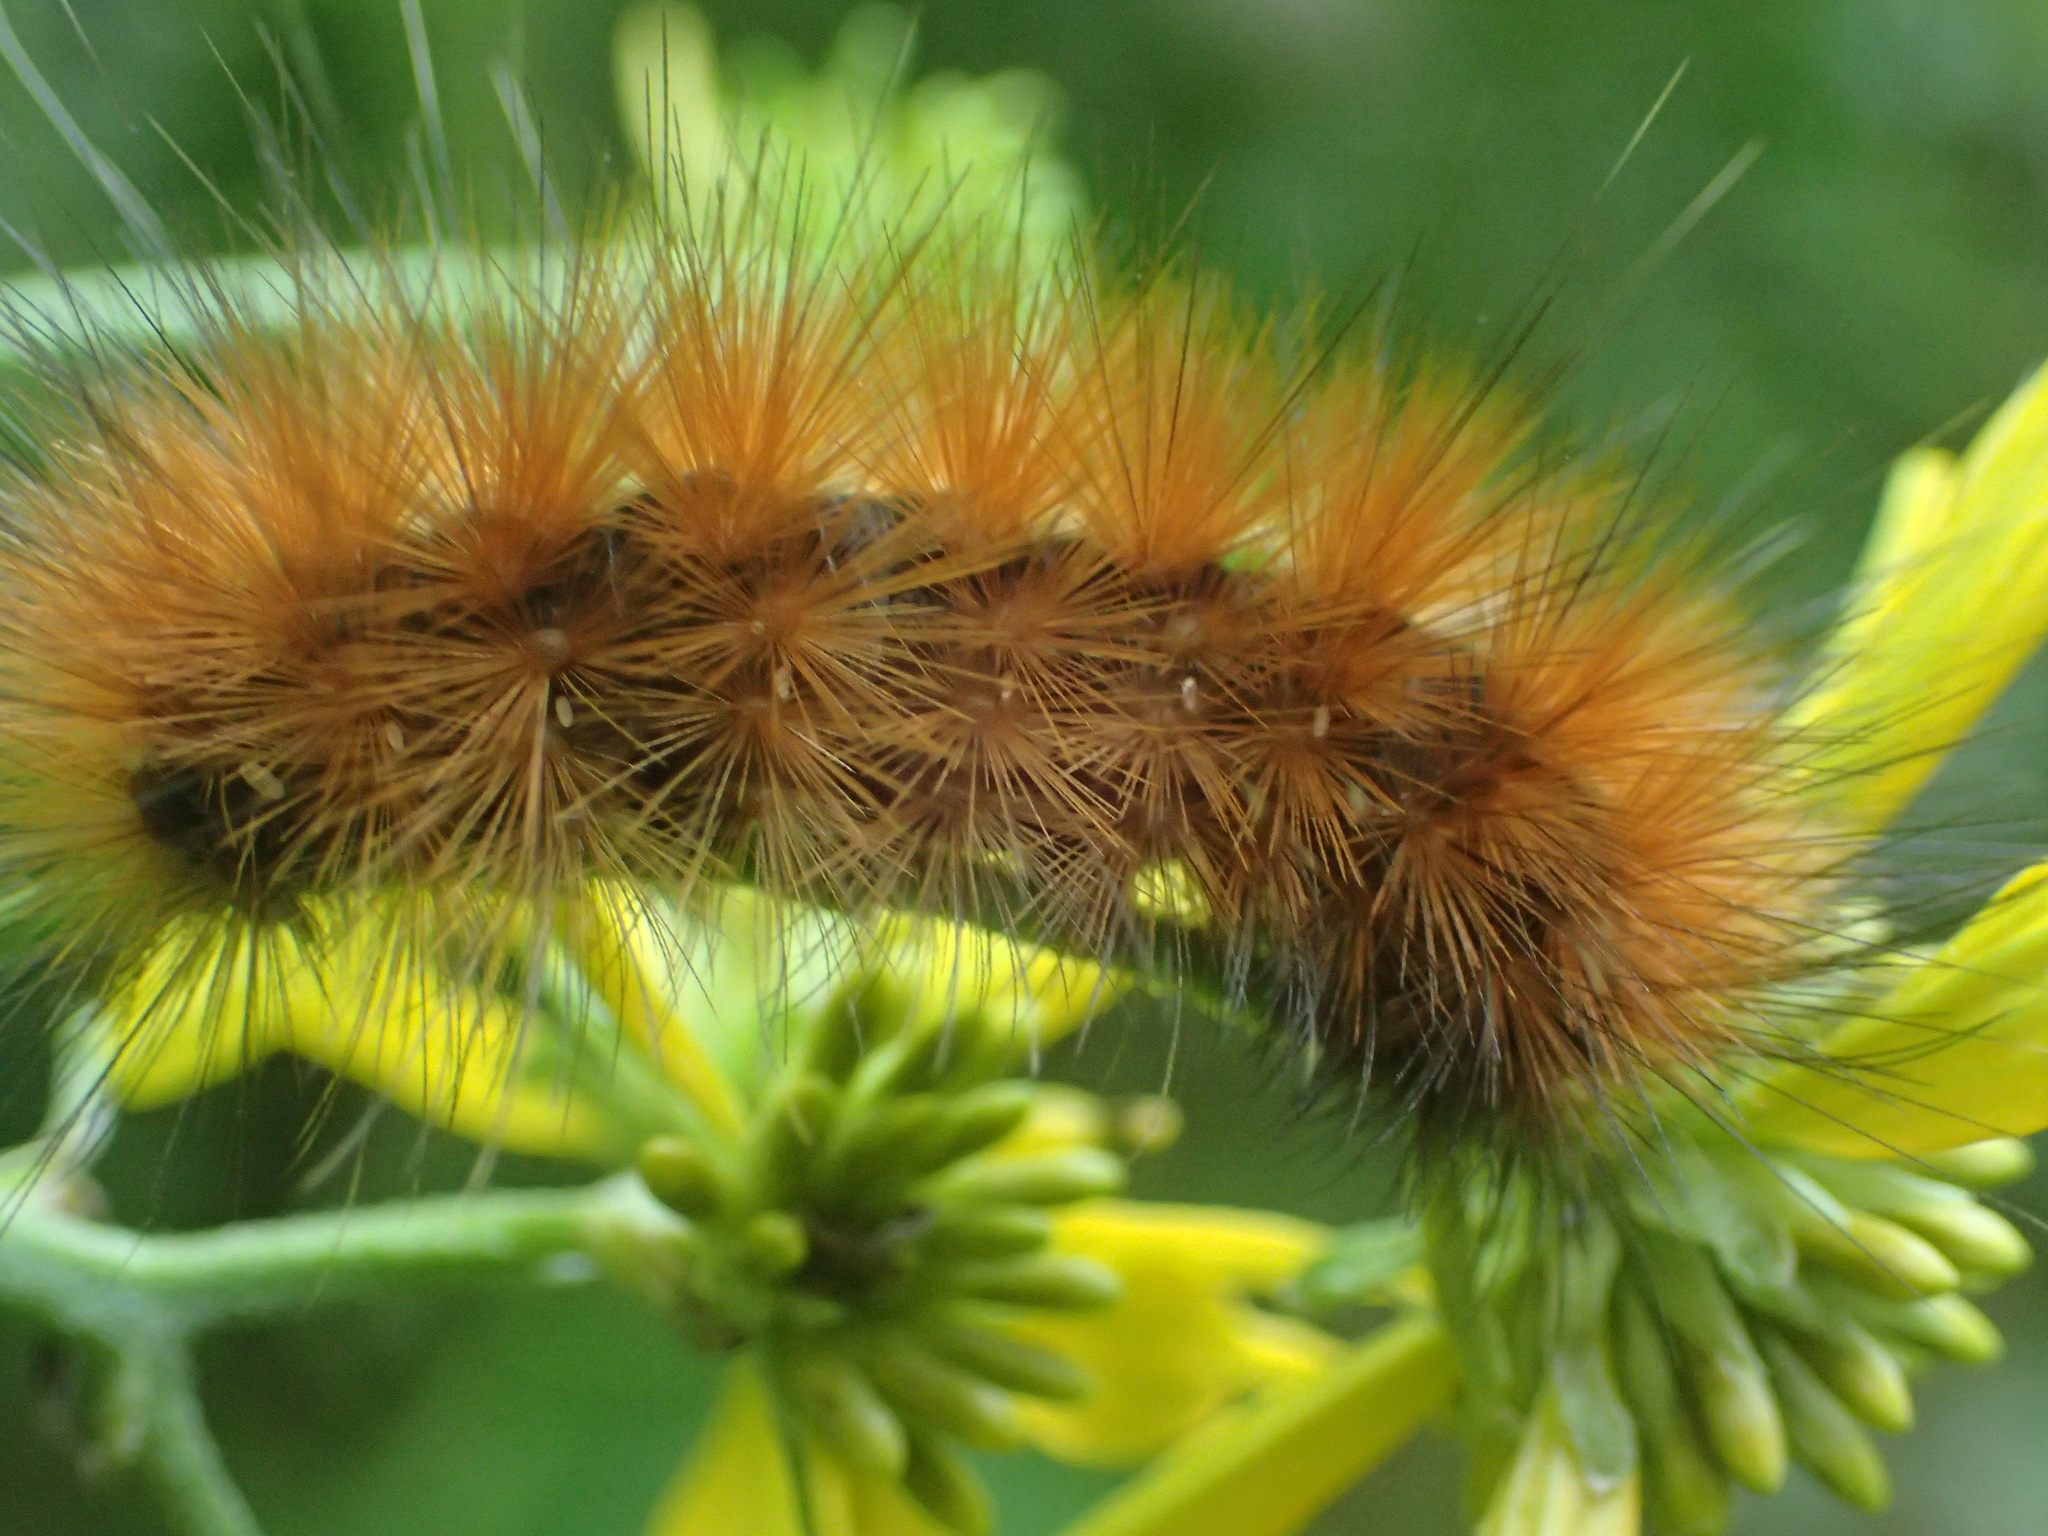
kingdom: Animalia
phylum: Arthropoda
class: Insecta
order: Lepidoptera
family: Erebidae
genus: Spilosoma
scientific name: Spilosoma virginica
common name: Virginia tiger moth
